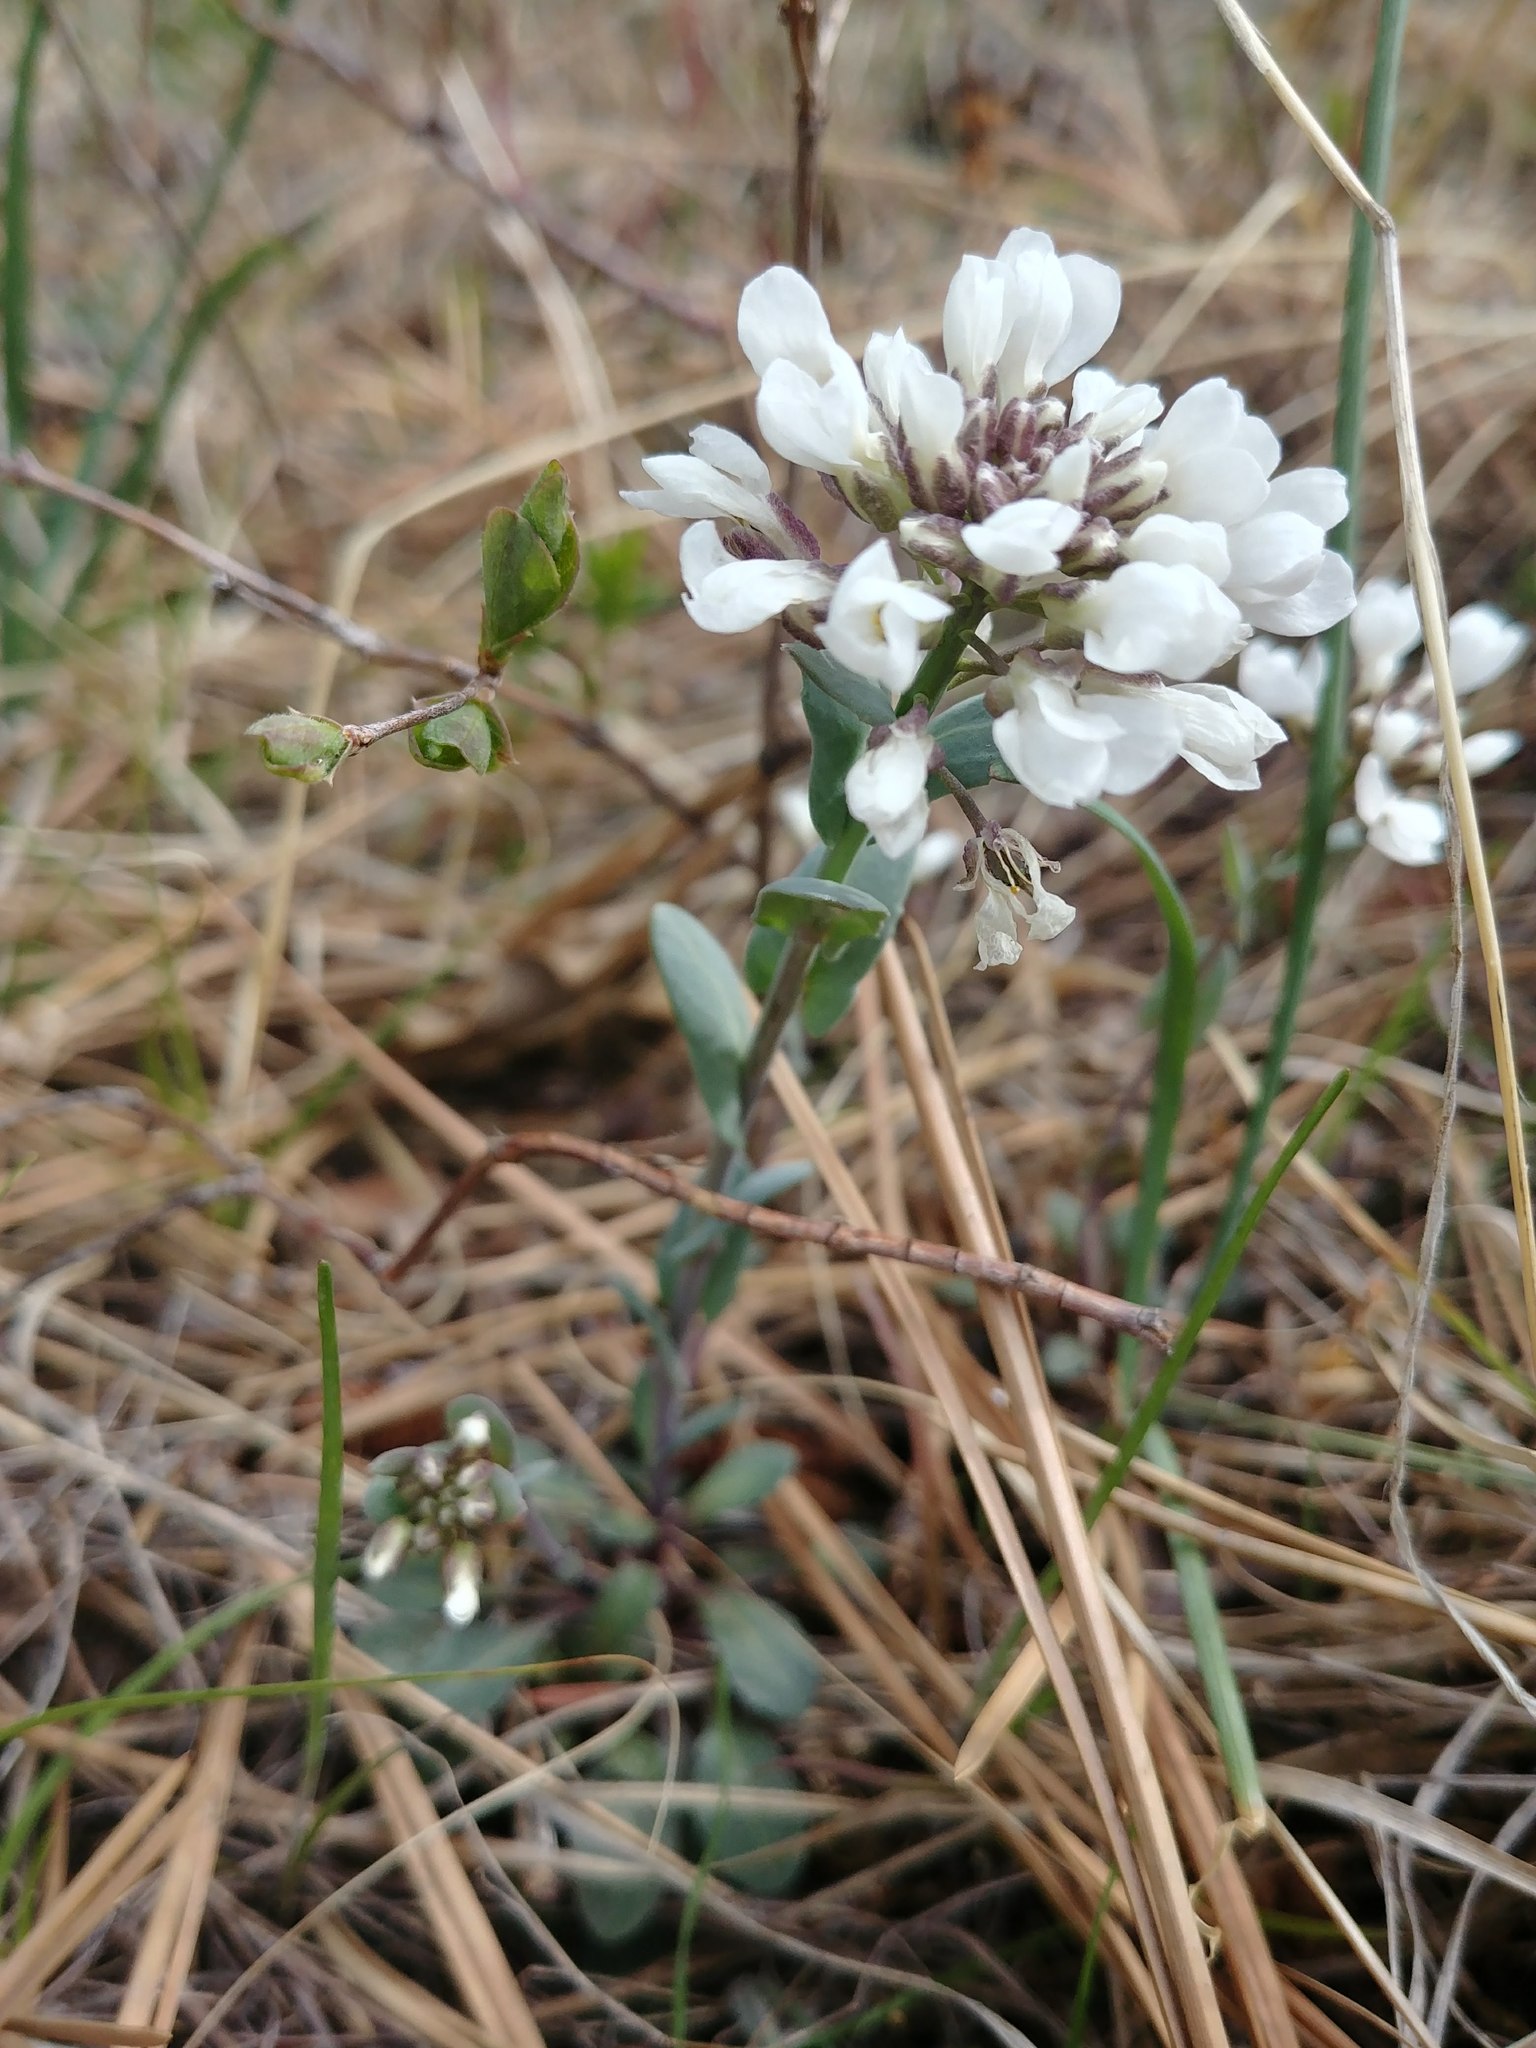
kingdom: Plantae
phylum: Tracheophyta
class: Magnoliopsida
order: Brassicales
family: Brassicaceae
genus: Noccaea
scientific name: Noccaea fendleri
